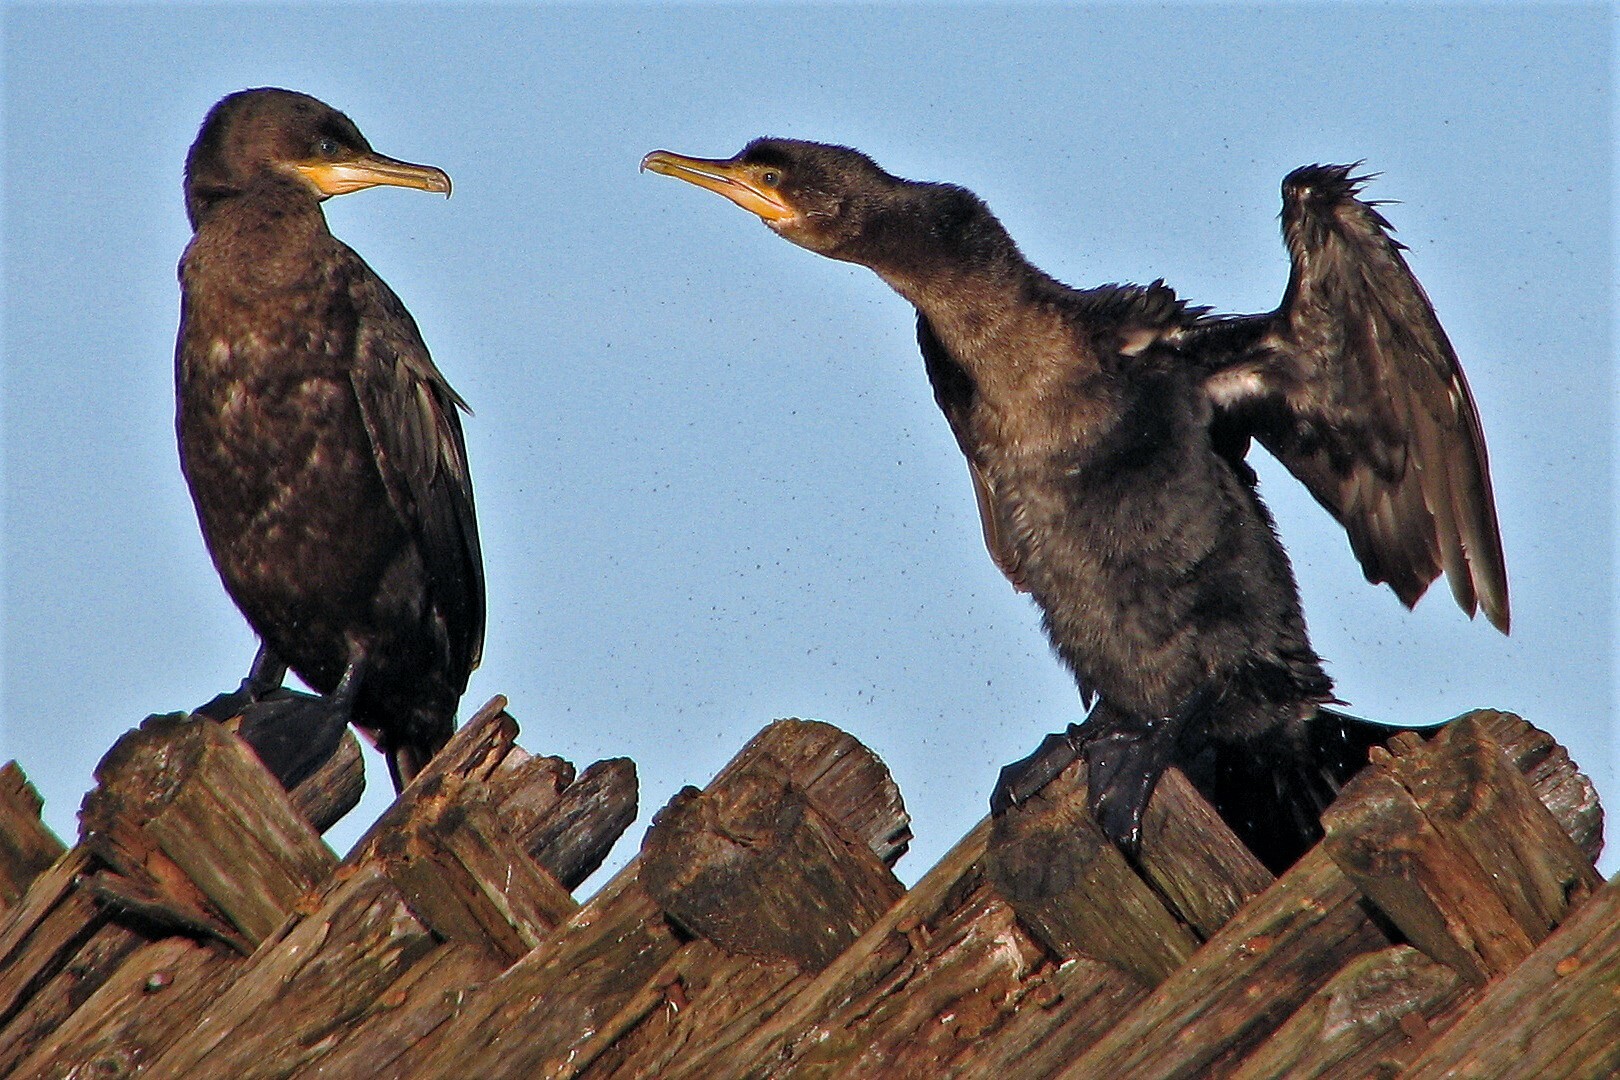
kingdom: Animalia
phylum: Chordata
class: Aves
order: Suliformes
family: Phalacrocoracidae
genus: Phalacrocorax
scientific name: Phalacrocorax brasilianus
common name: Neotropic cormorant
